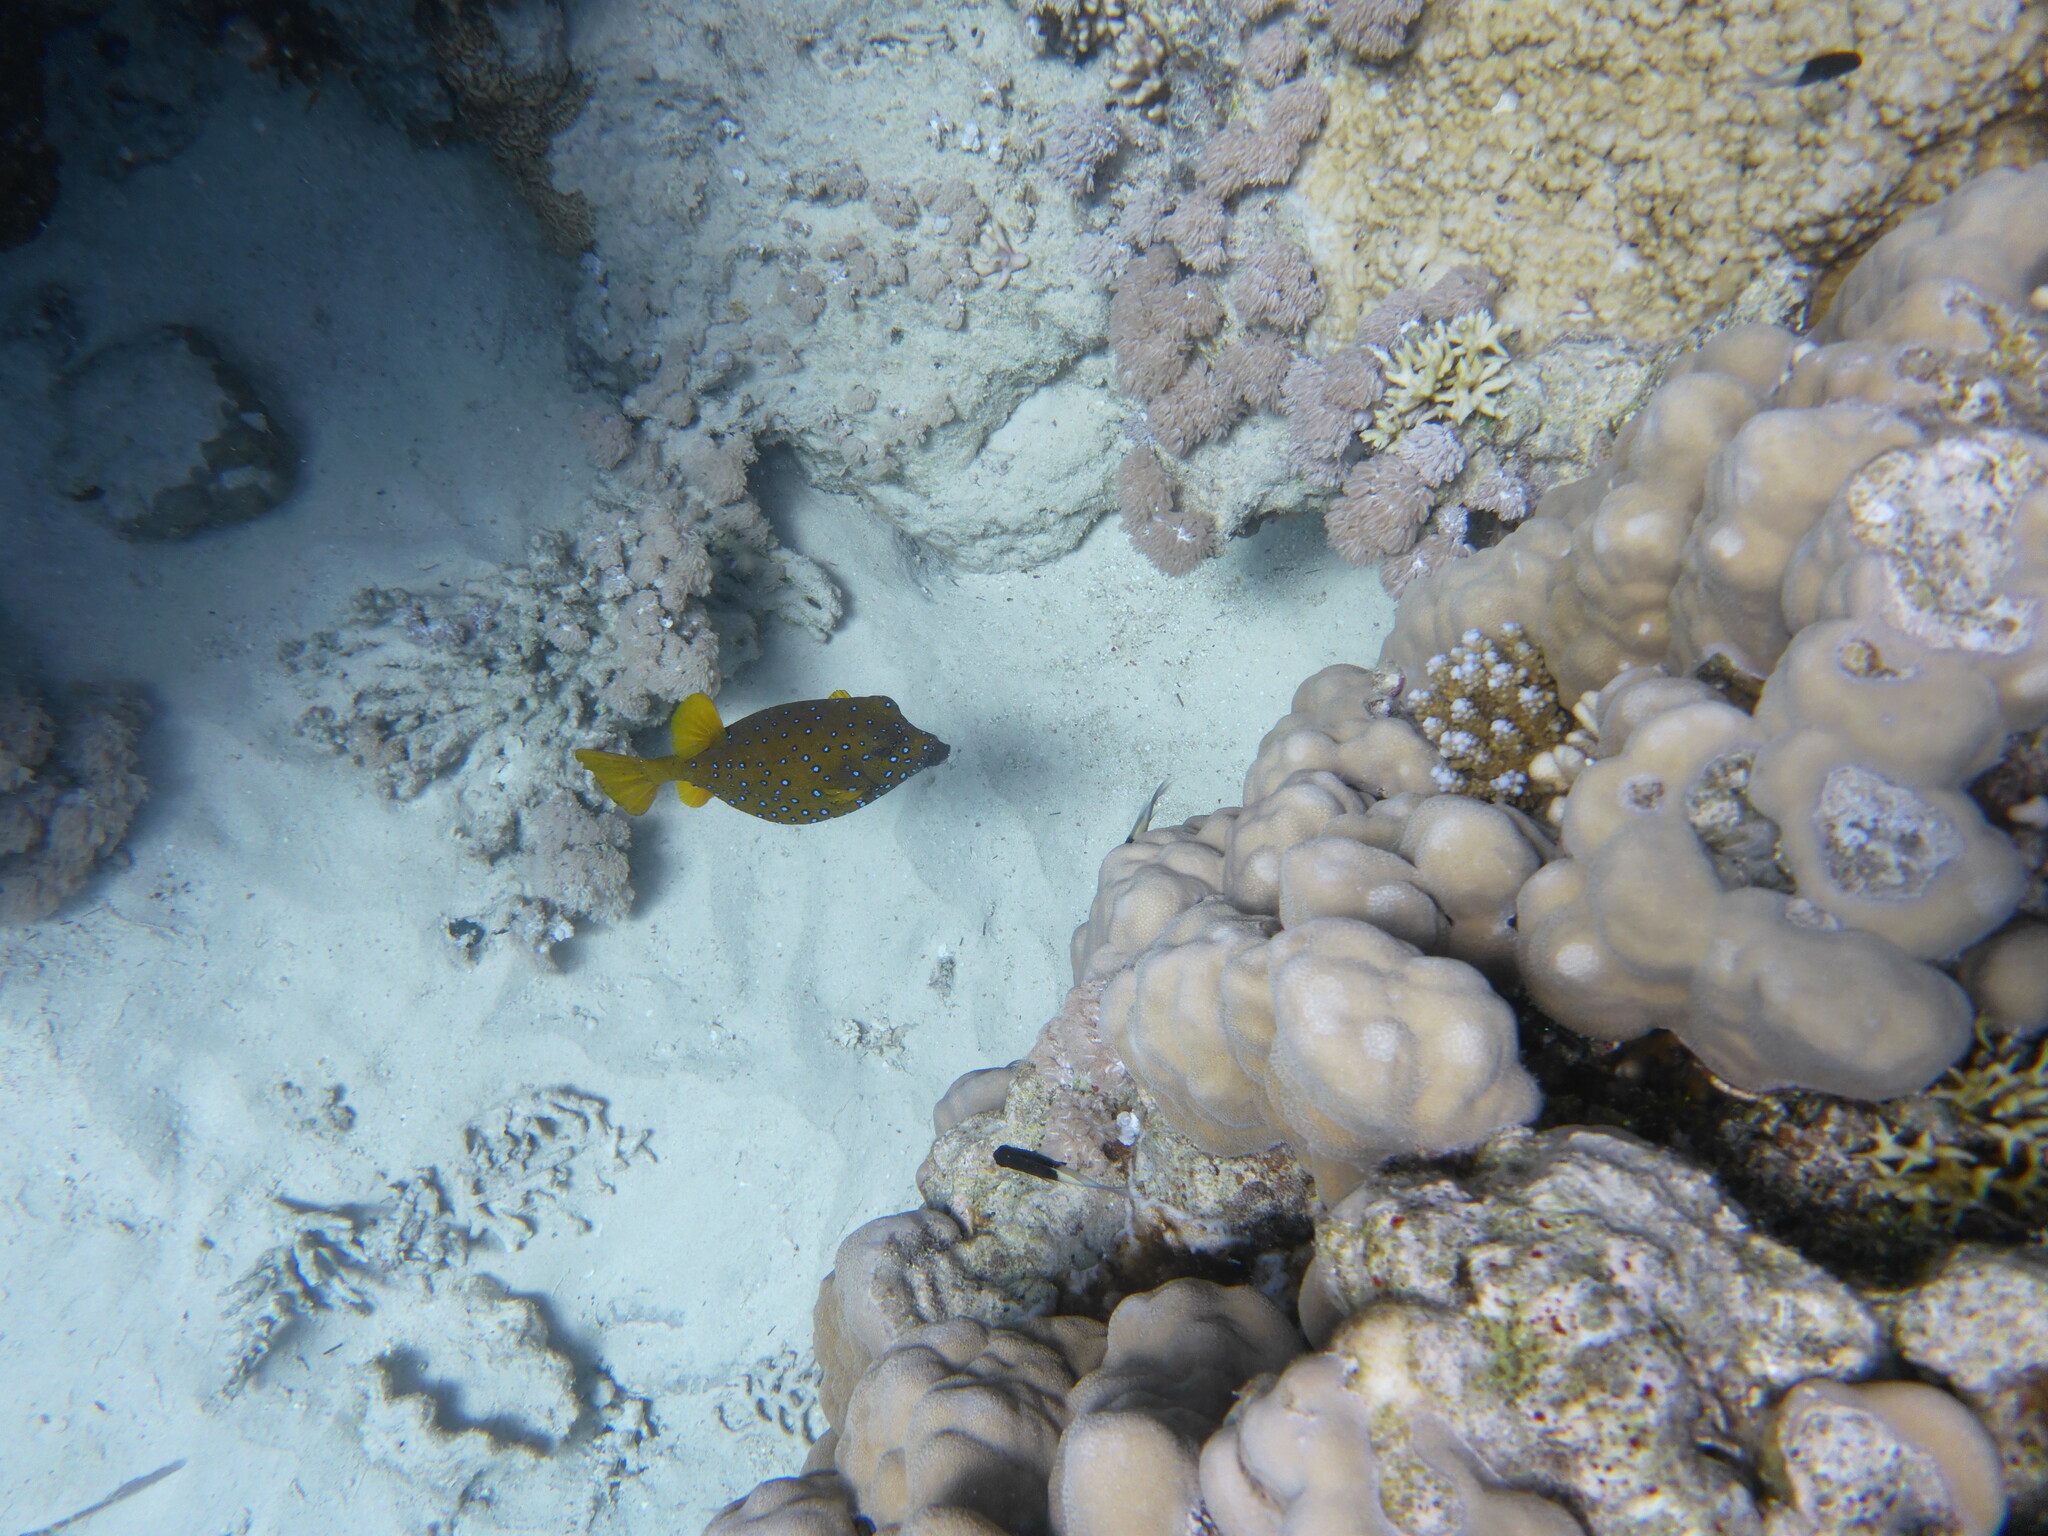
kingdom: Animalia
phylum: Chordata
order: Tetraodontiformes
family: Ostraciidae
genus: Ostracion
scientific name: Ostracion cubicus
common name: Cube trunkfish
